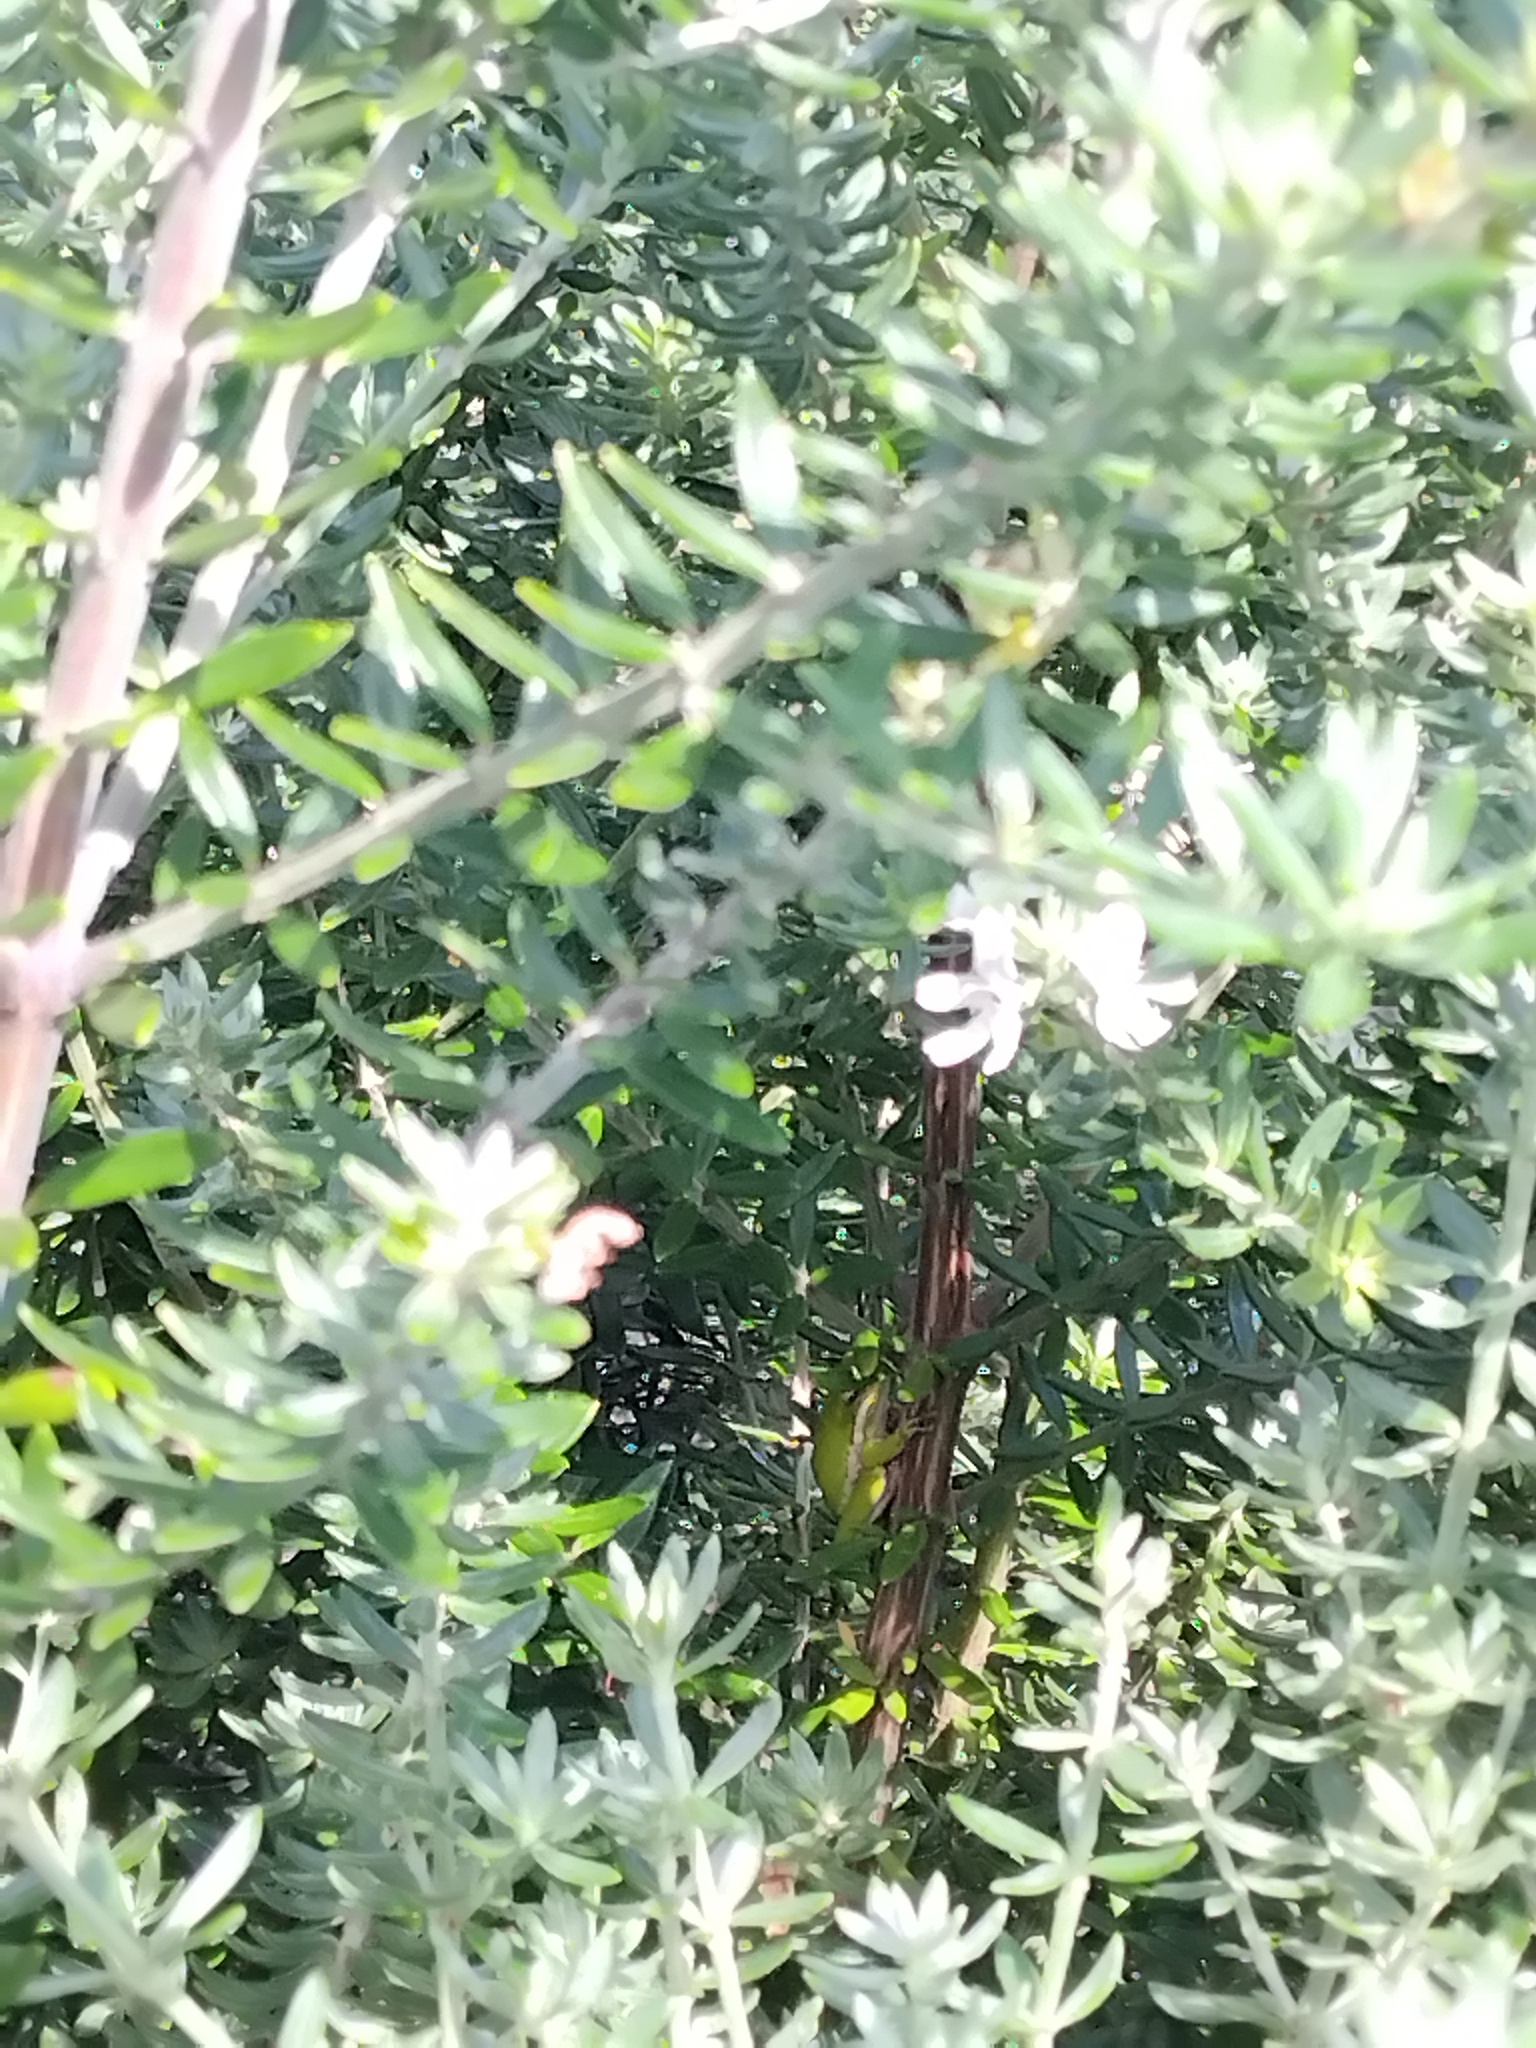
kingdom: Animalia
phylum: Chordata
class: Amphibia
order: Anura
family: Pelodryadidae
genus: Litoria
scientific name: Litoria fallax
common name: Eastern dwarf treefrog
